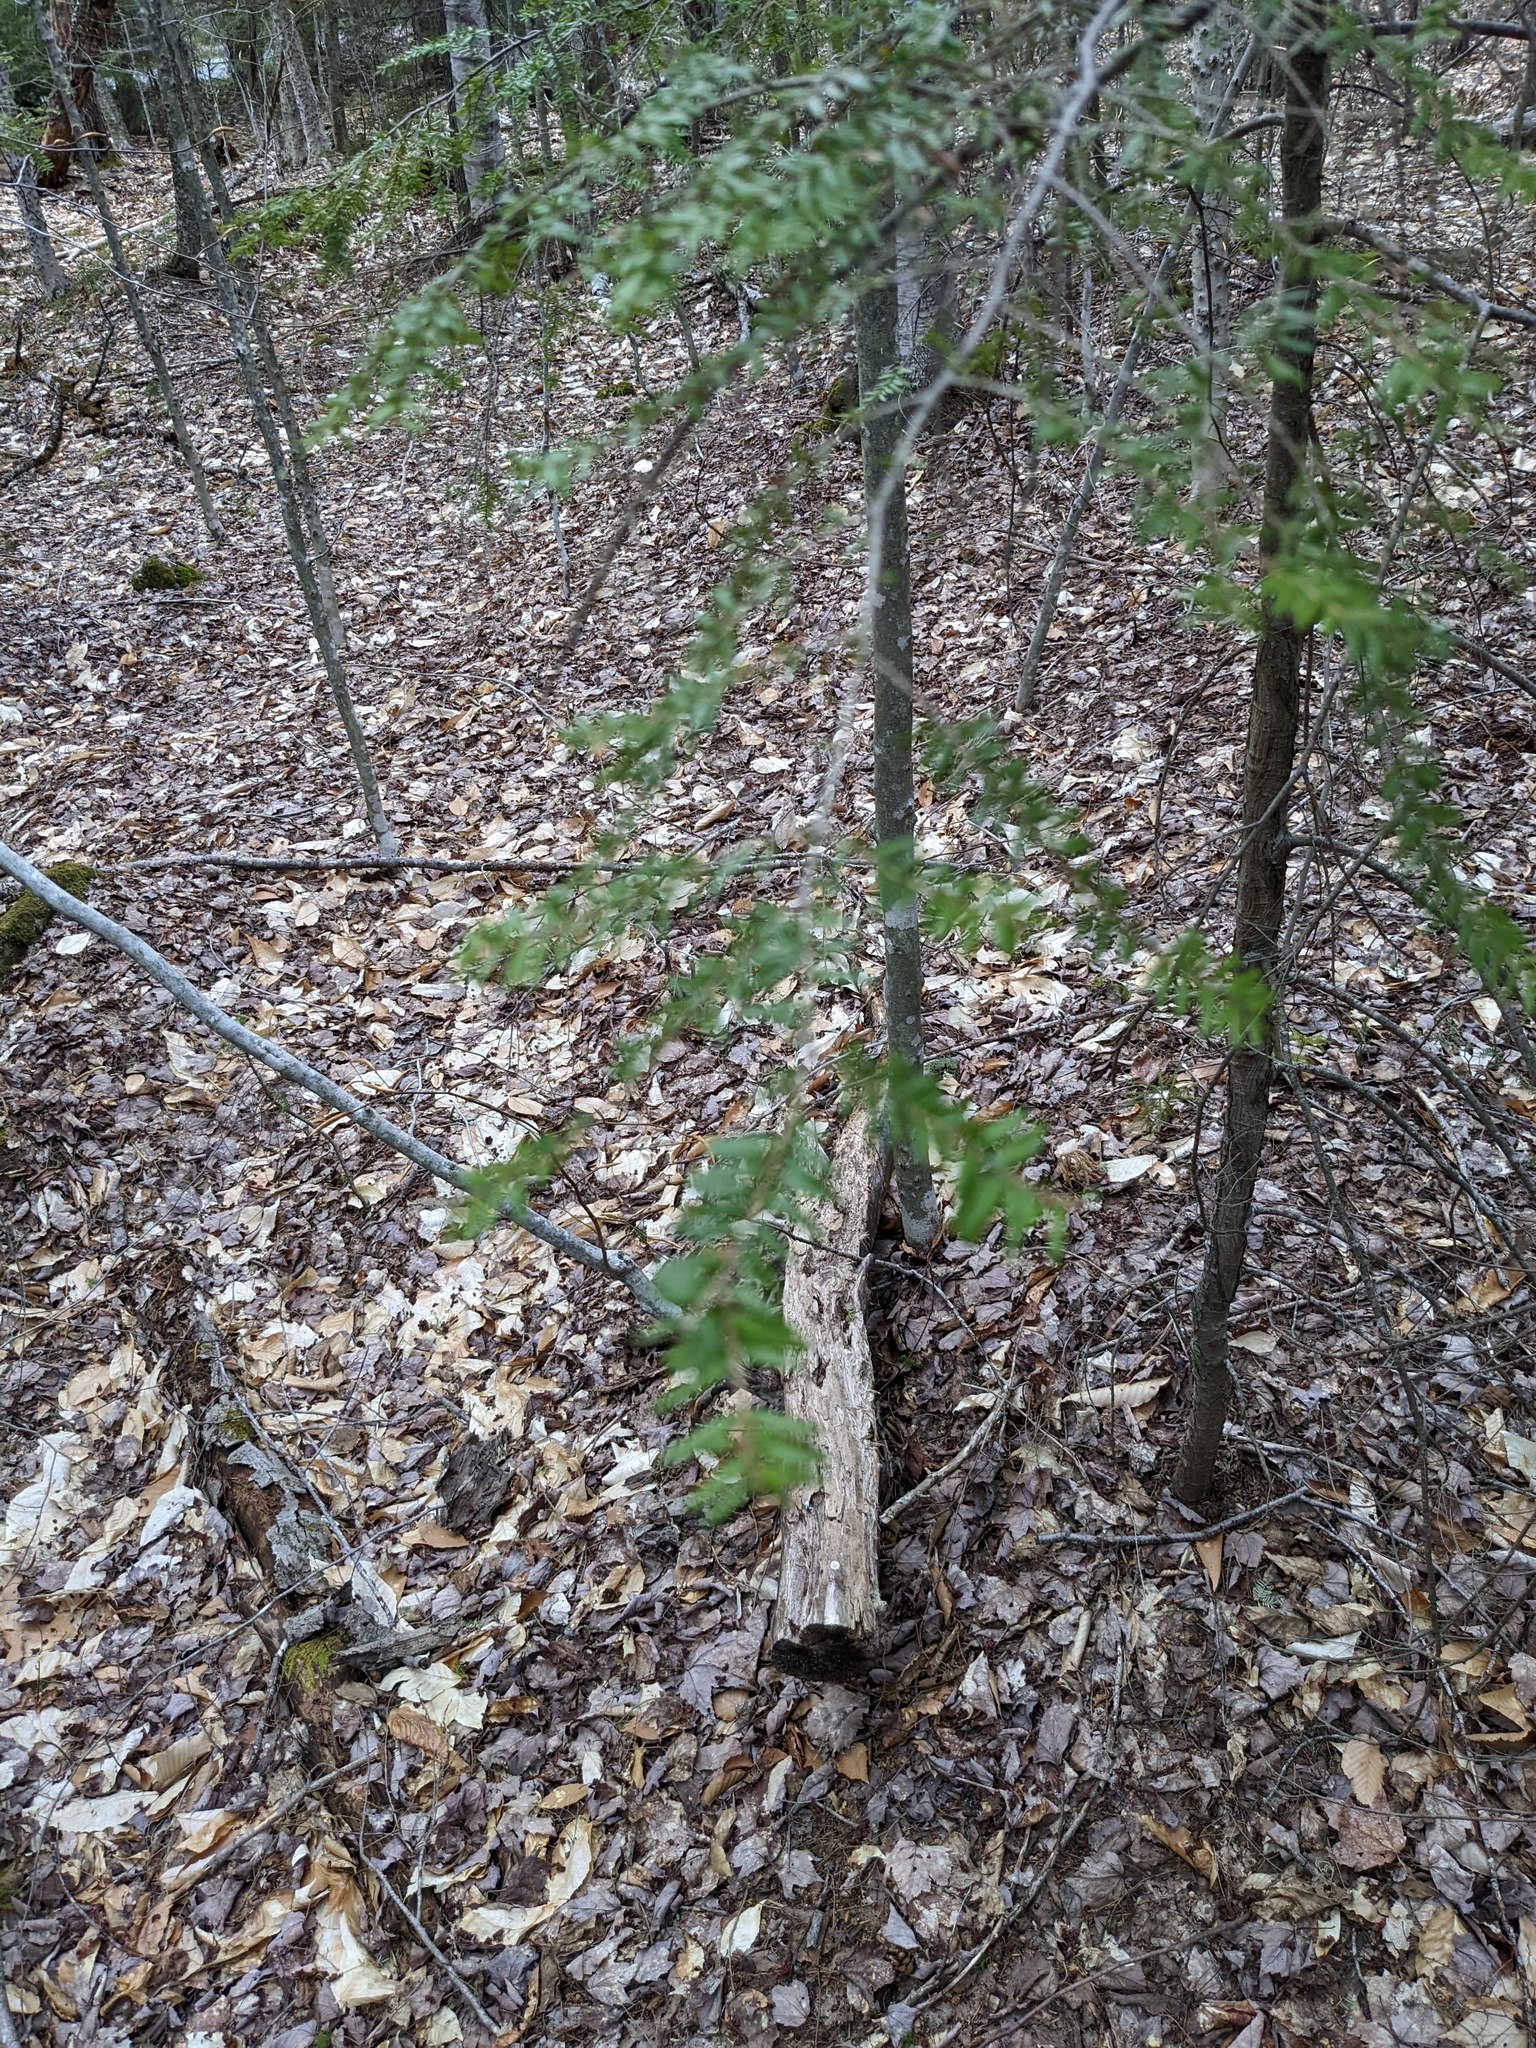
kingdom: Plantae
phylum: Tracheophyta
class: Pinopsida
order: Pinales
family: Pinaceae
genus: Tsuga
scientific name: Tsuga canadensis
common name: Eastern hemlock
